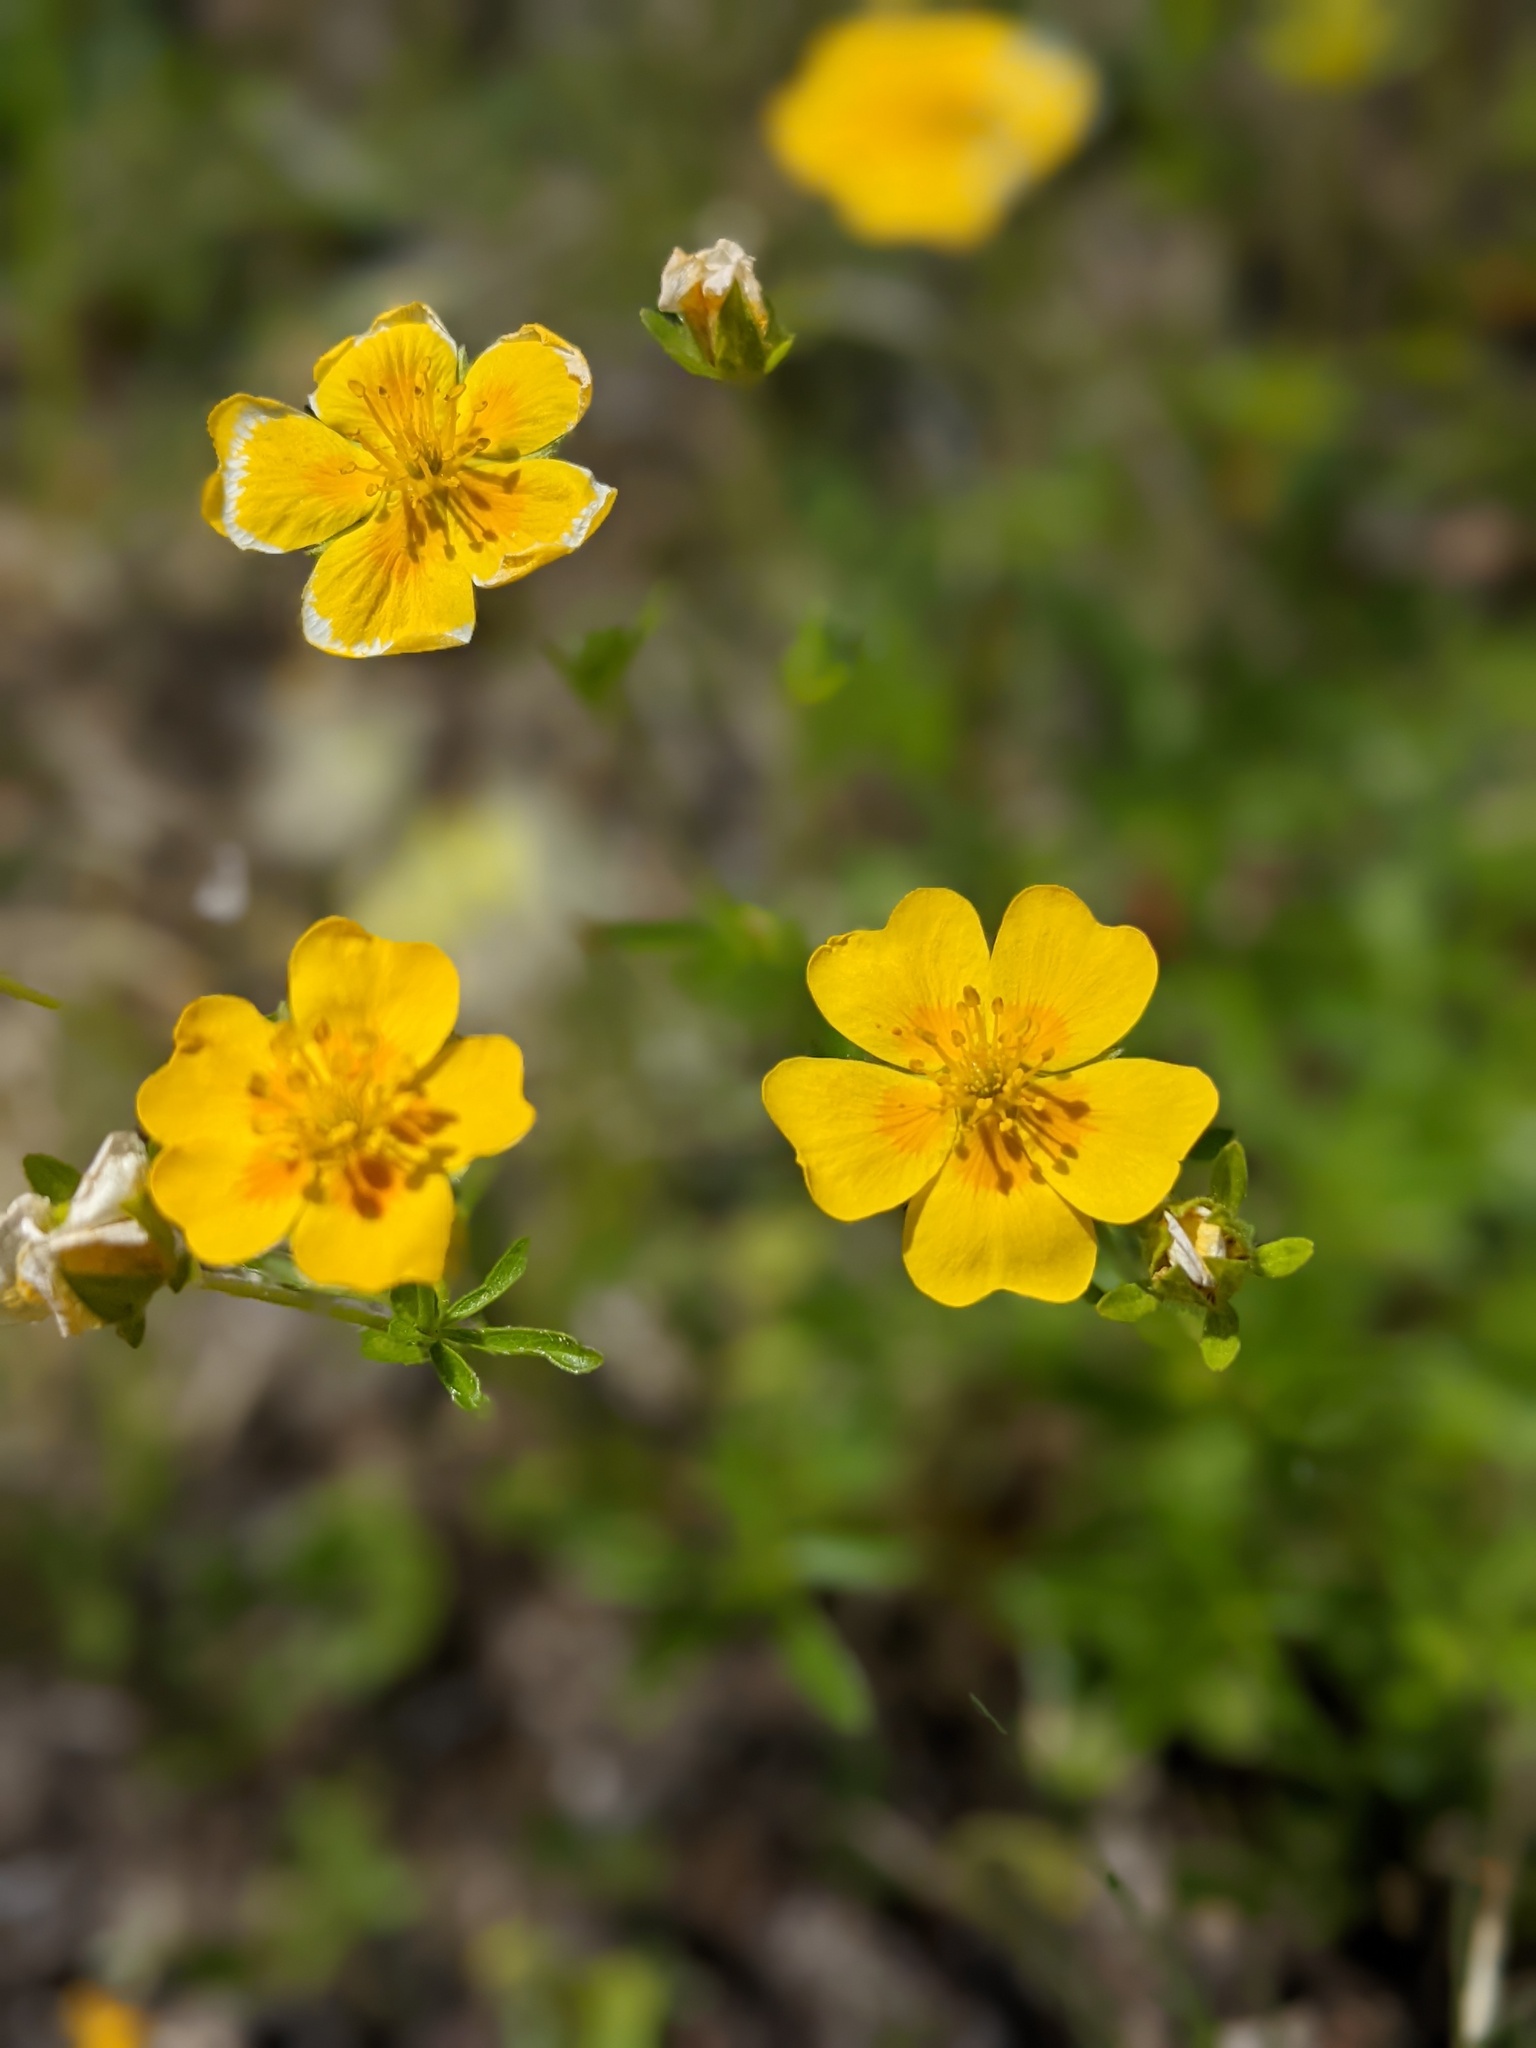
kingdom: Plantae
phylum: Tracheophyta
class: Magnoliopsida
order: Rosales
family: Rosaceae
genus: Potentilla
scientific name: Potentilla aurea
